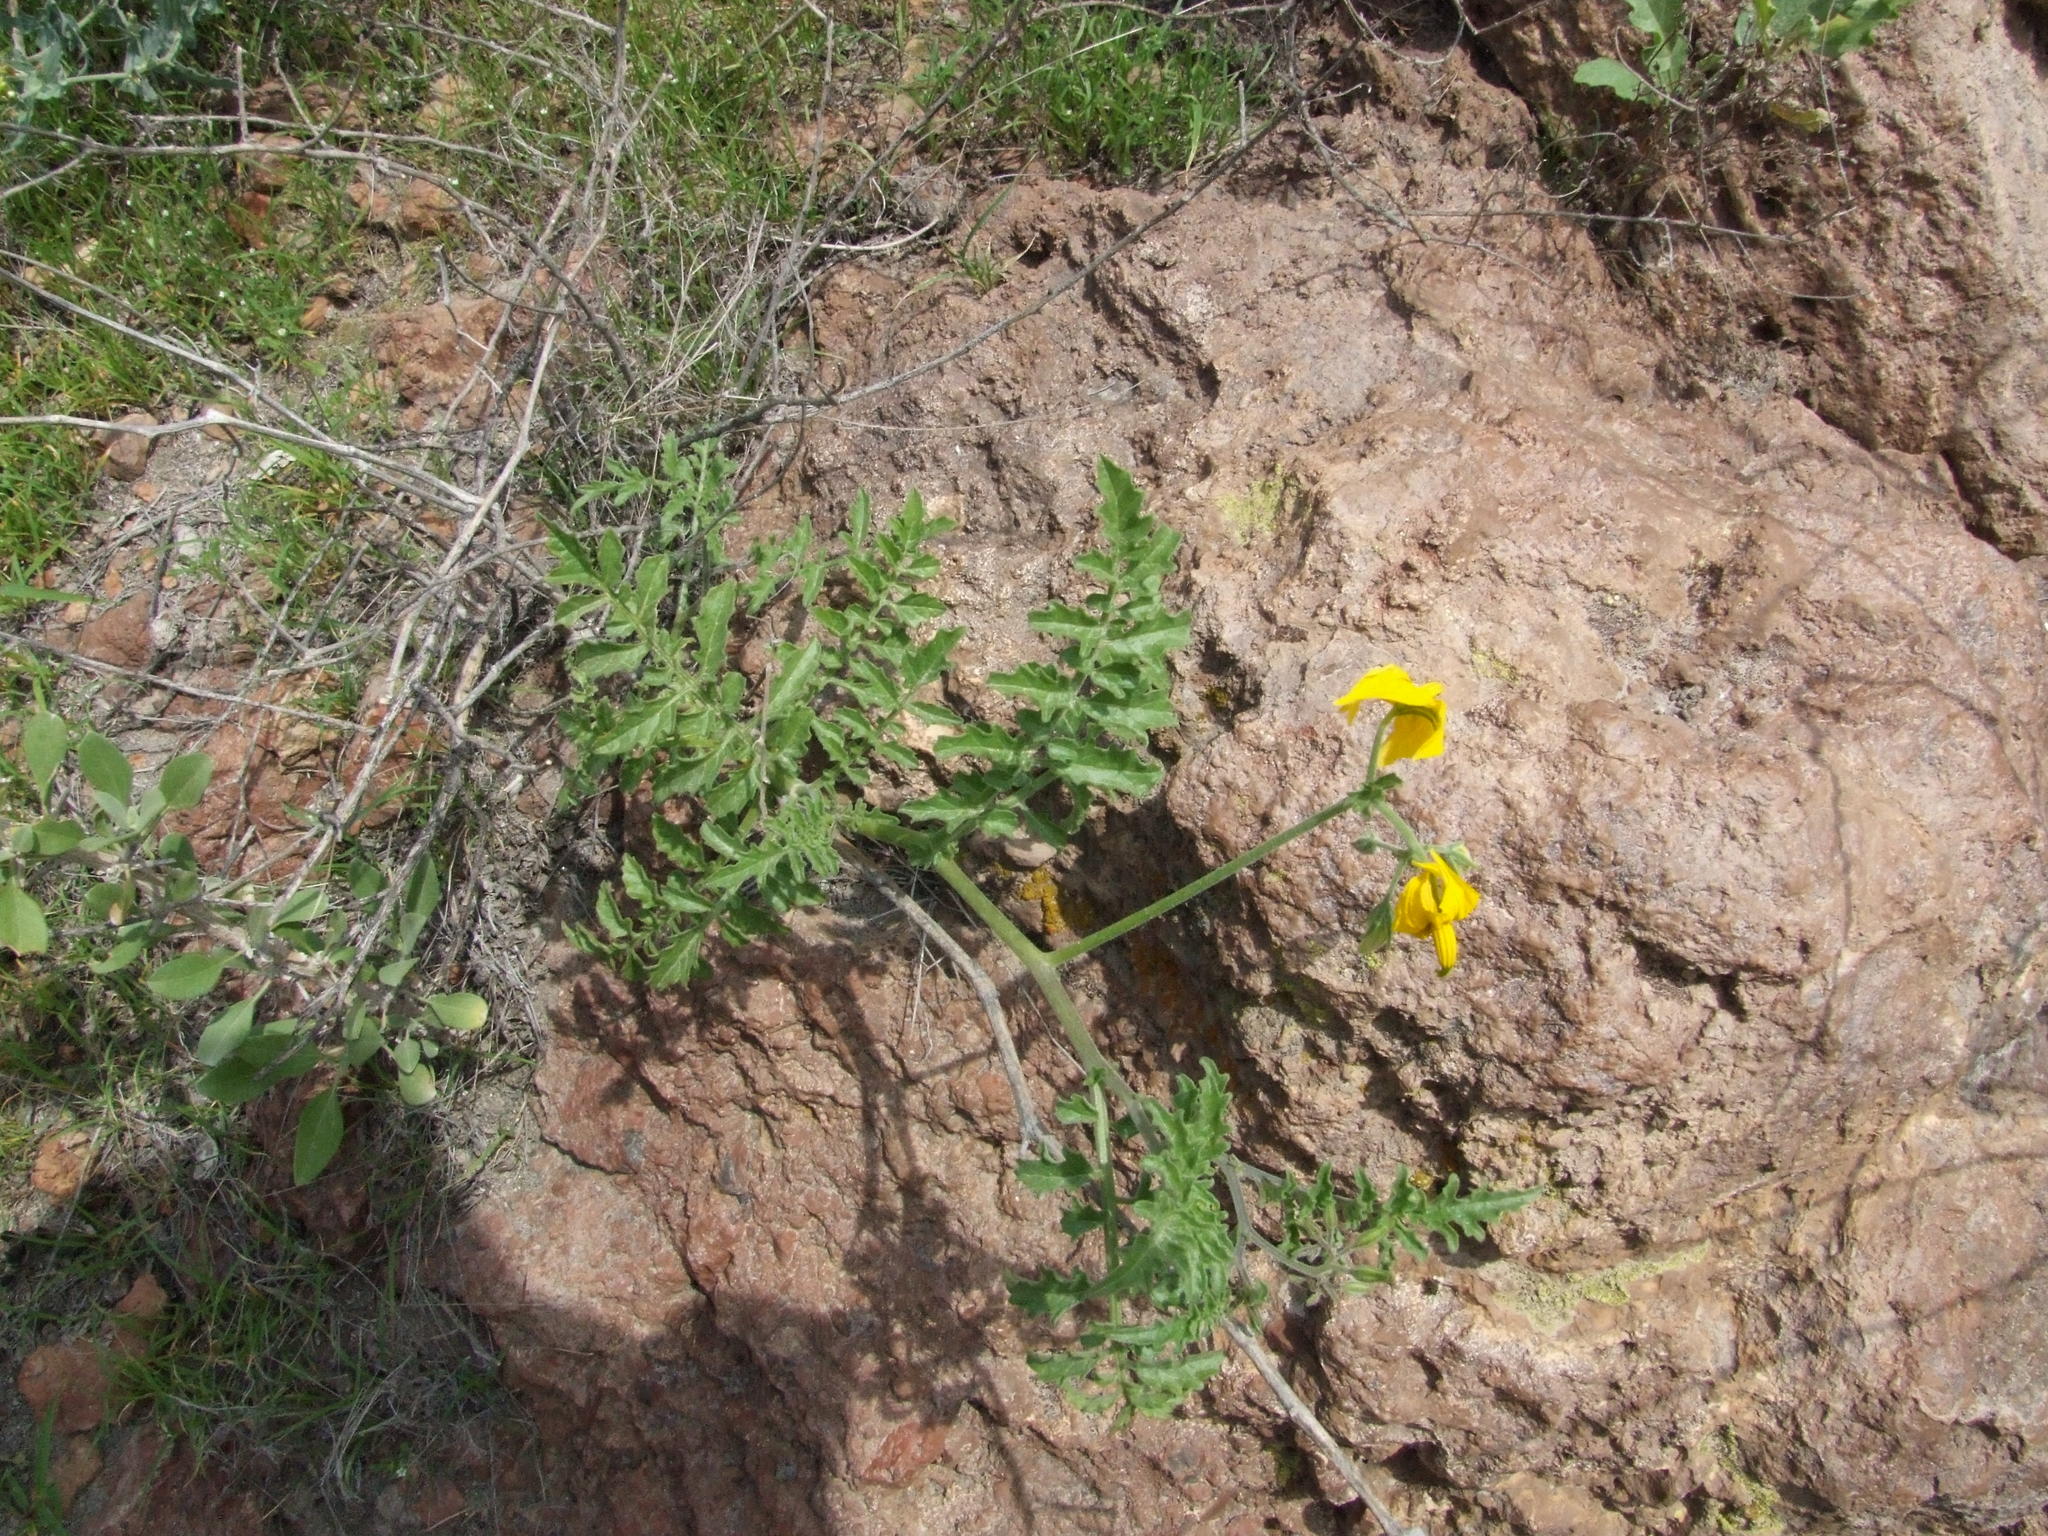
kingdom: Plantae
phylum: Tracheophyta
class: Magnoliopsida
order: Solanales
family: Solanaceae
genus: Solanum
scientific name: Solanum peruvianum
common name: Peruvian nightshade
